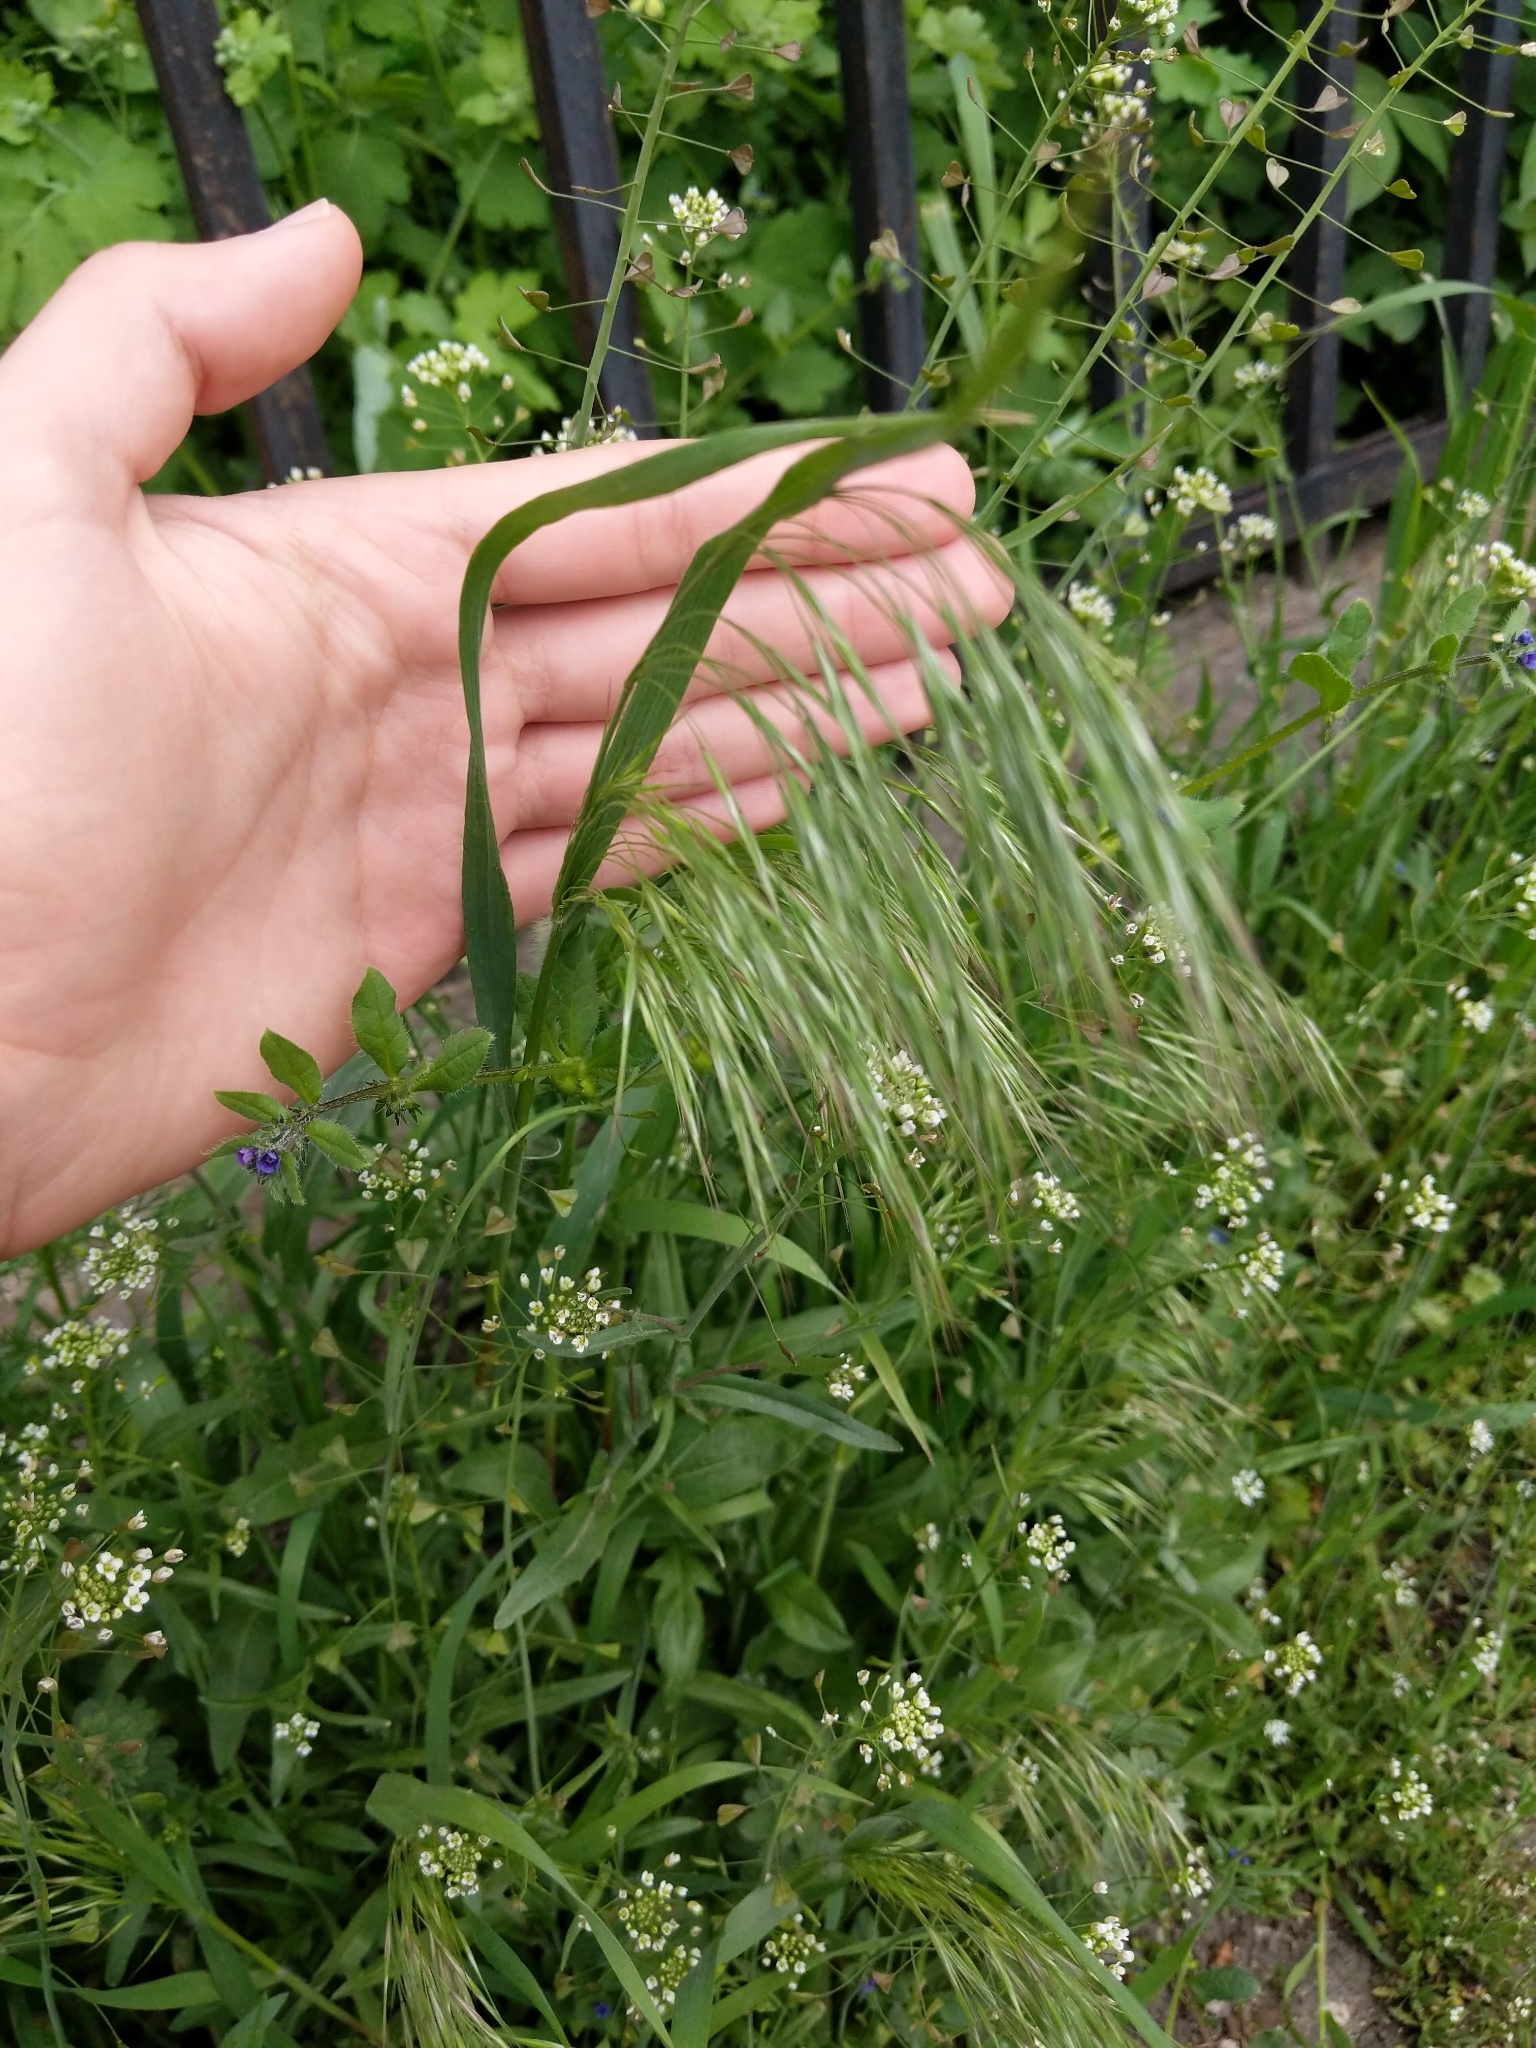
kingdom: Plantae
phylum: Tracheophyta
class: Liliopsida
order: Poales
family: Poaceae
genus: Bromus
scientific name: Bromus tectorum
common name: Cheatgrass
